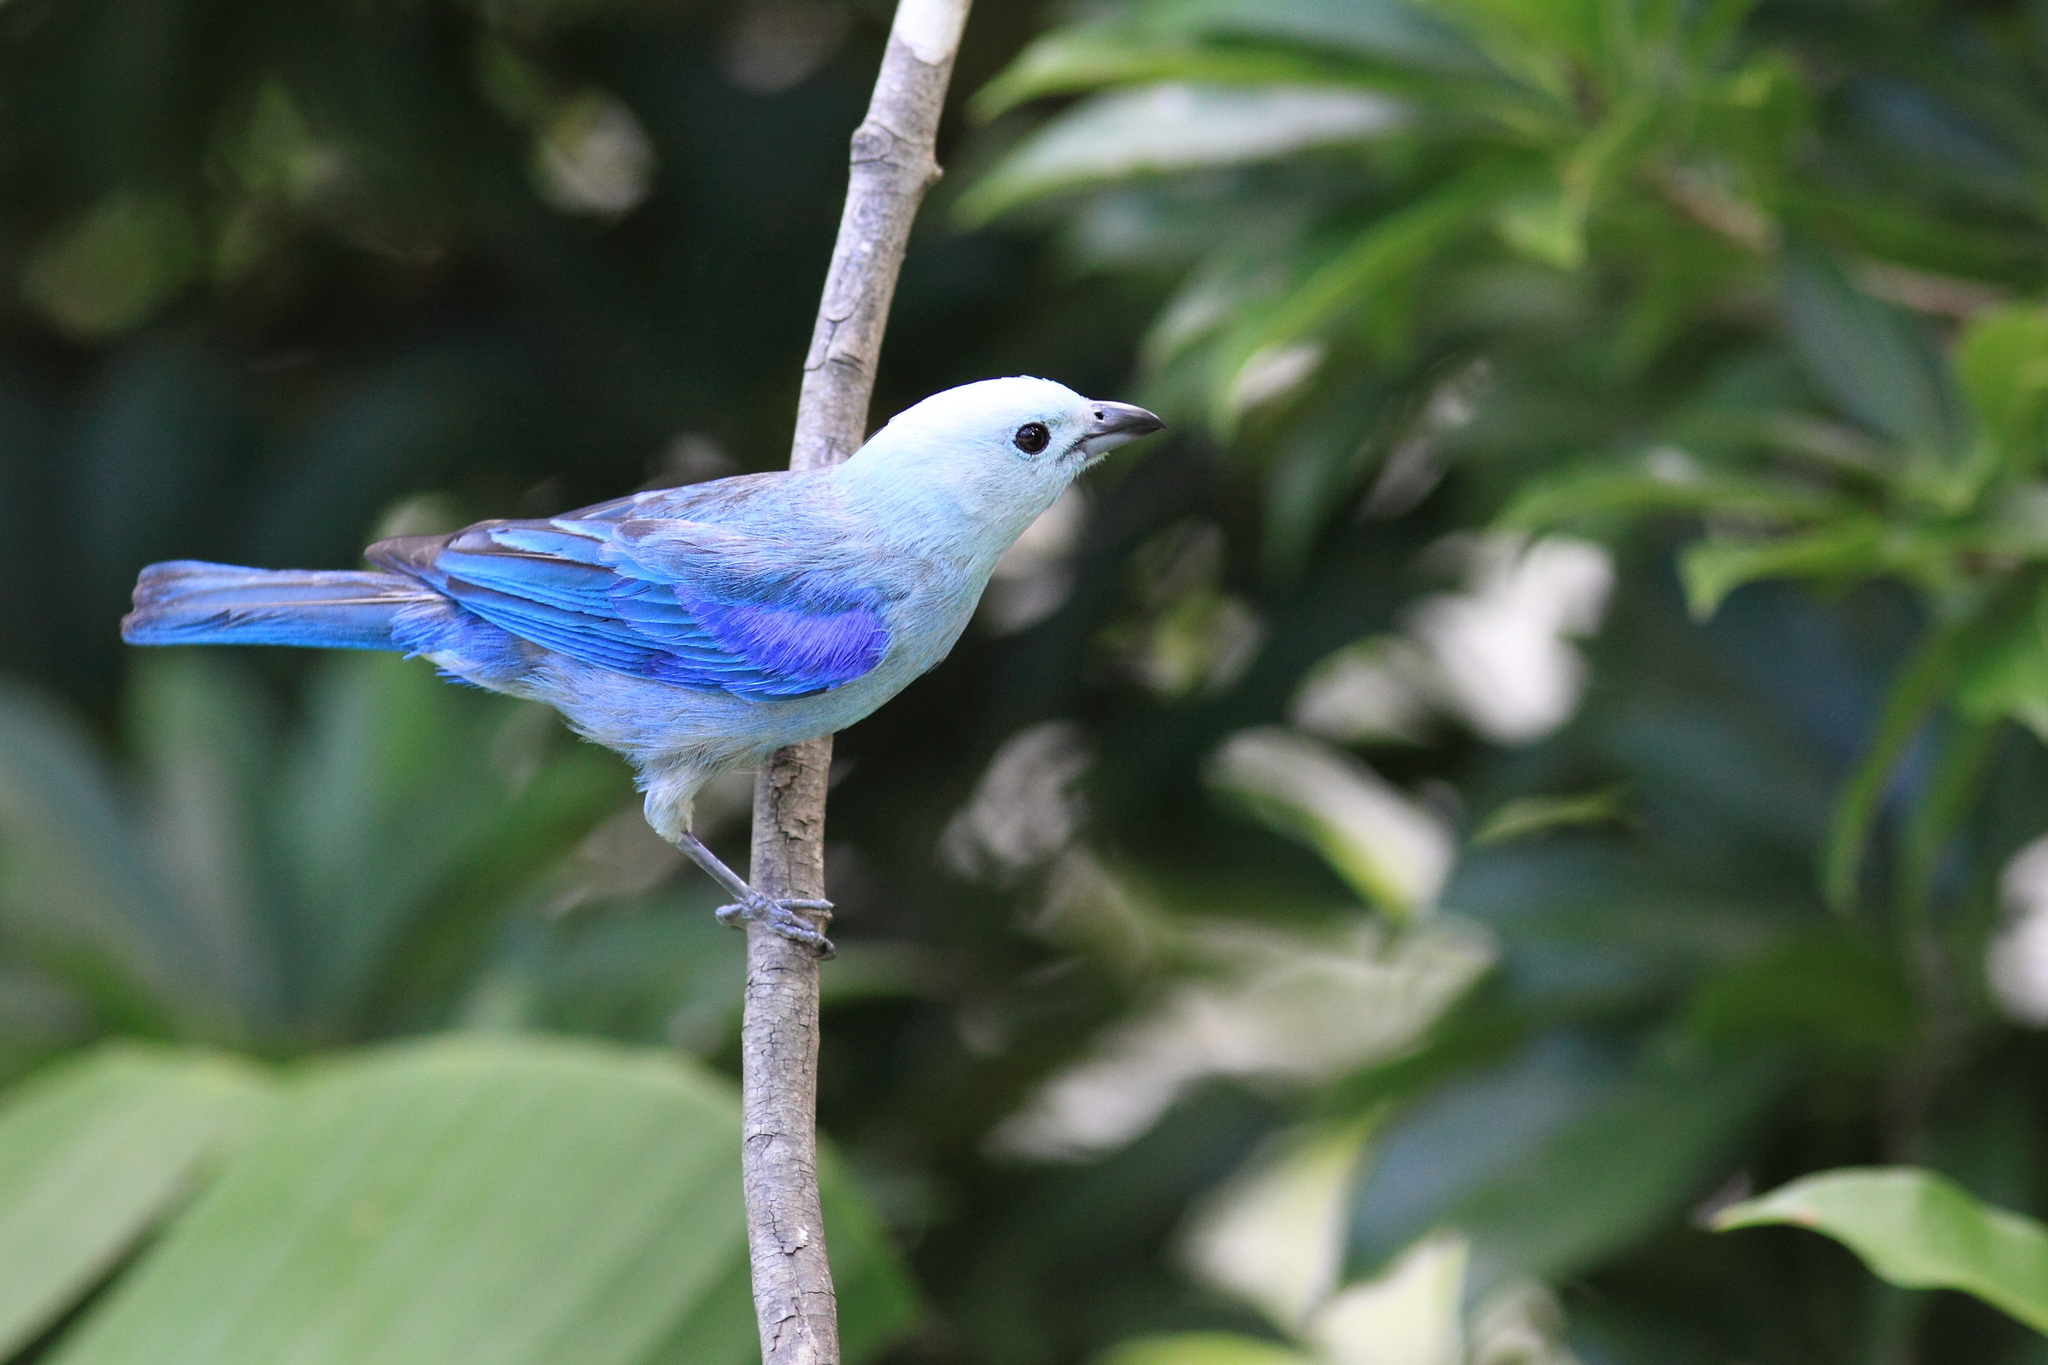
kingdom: Animalia
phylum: Chordata
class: Aves
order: Passeriformes
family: Thraupidae
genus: Thraupis
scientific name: Thraupis episcopus
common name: Blue-grey tanager
